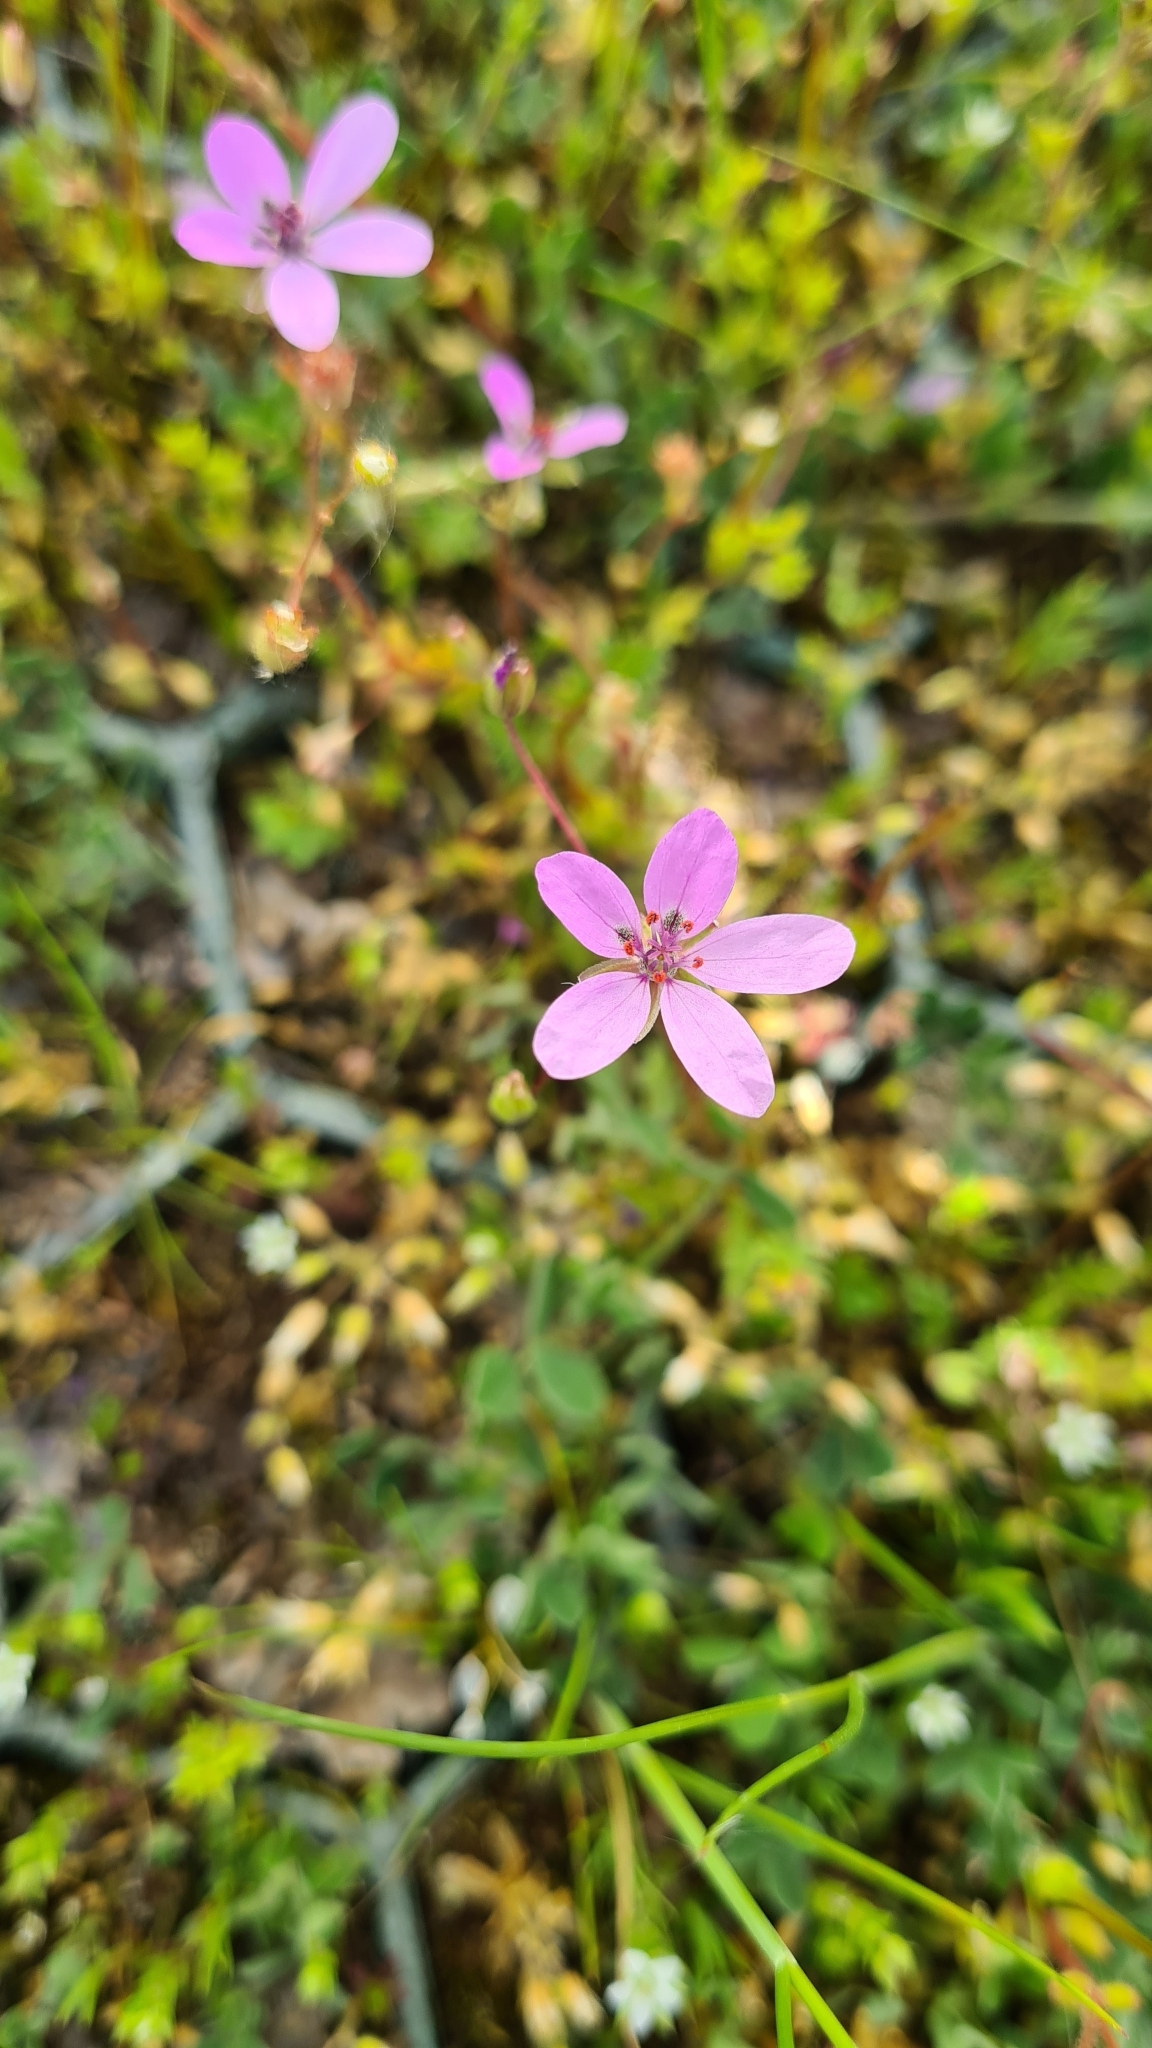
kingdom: Plantae
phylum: Tracheophyta
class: Magnoliopsida
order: Geraniales
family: Geraniaceae
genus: Erodium
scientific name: Erodium cicutarium
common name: Common stork's-bill
